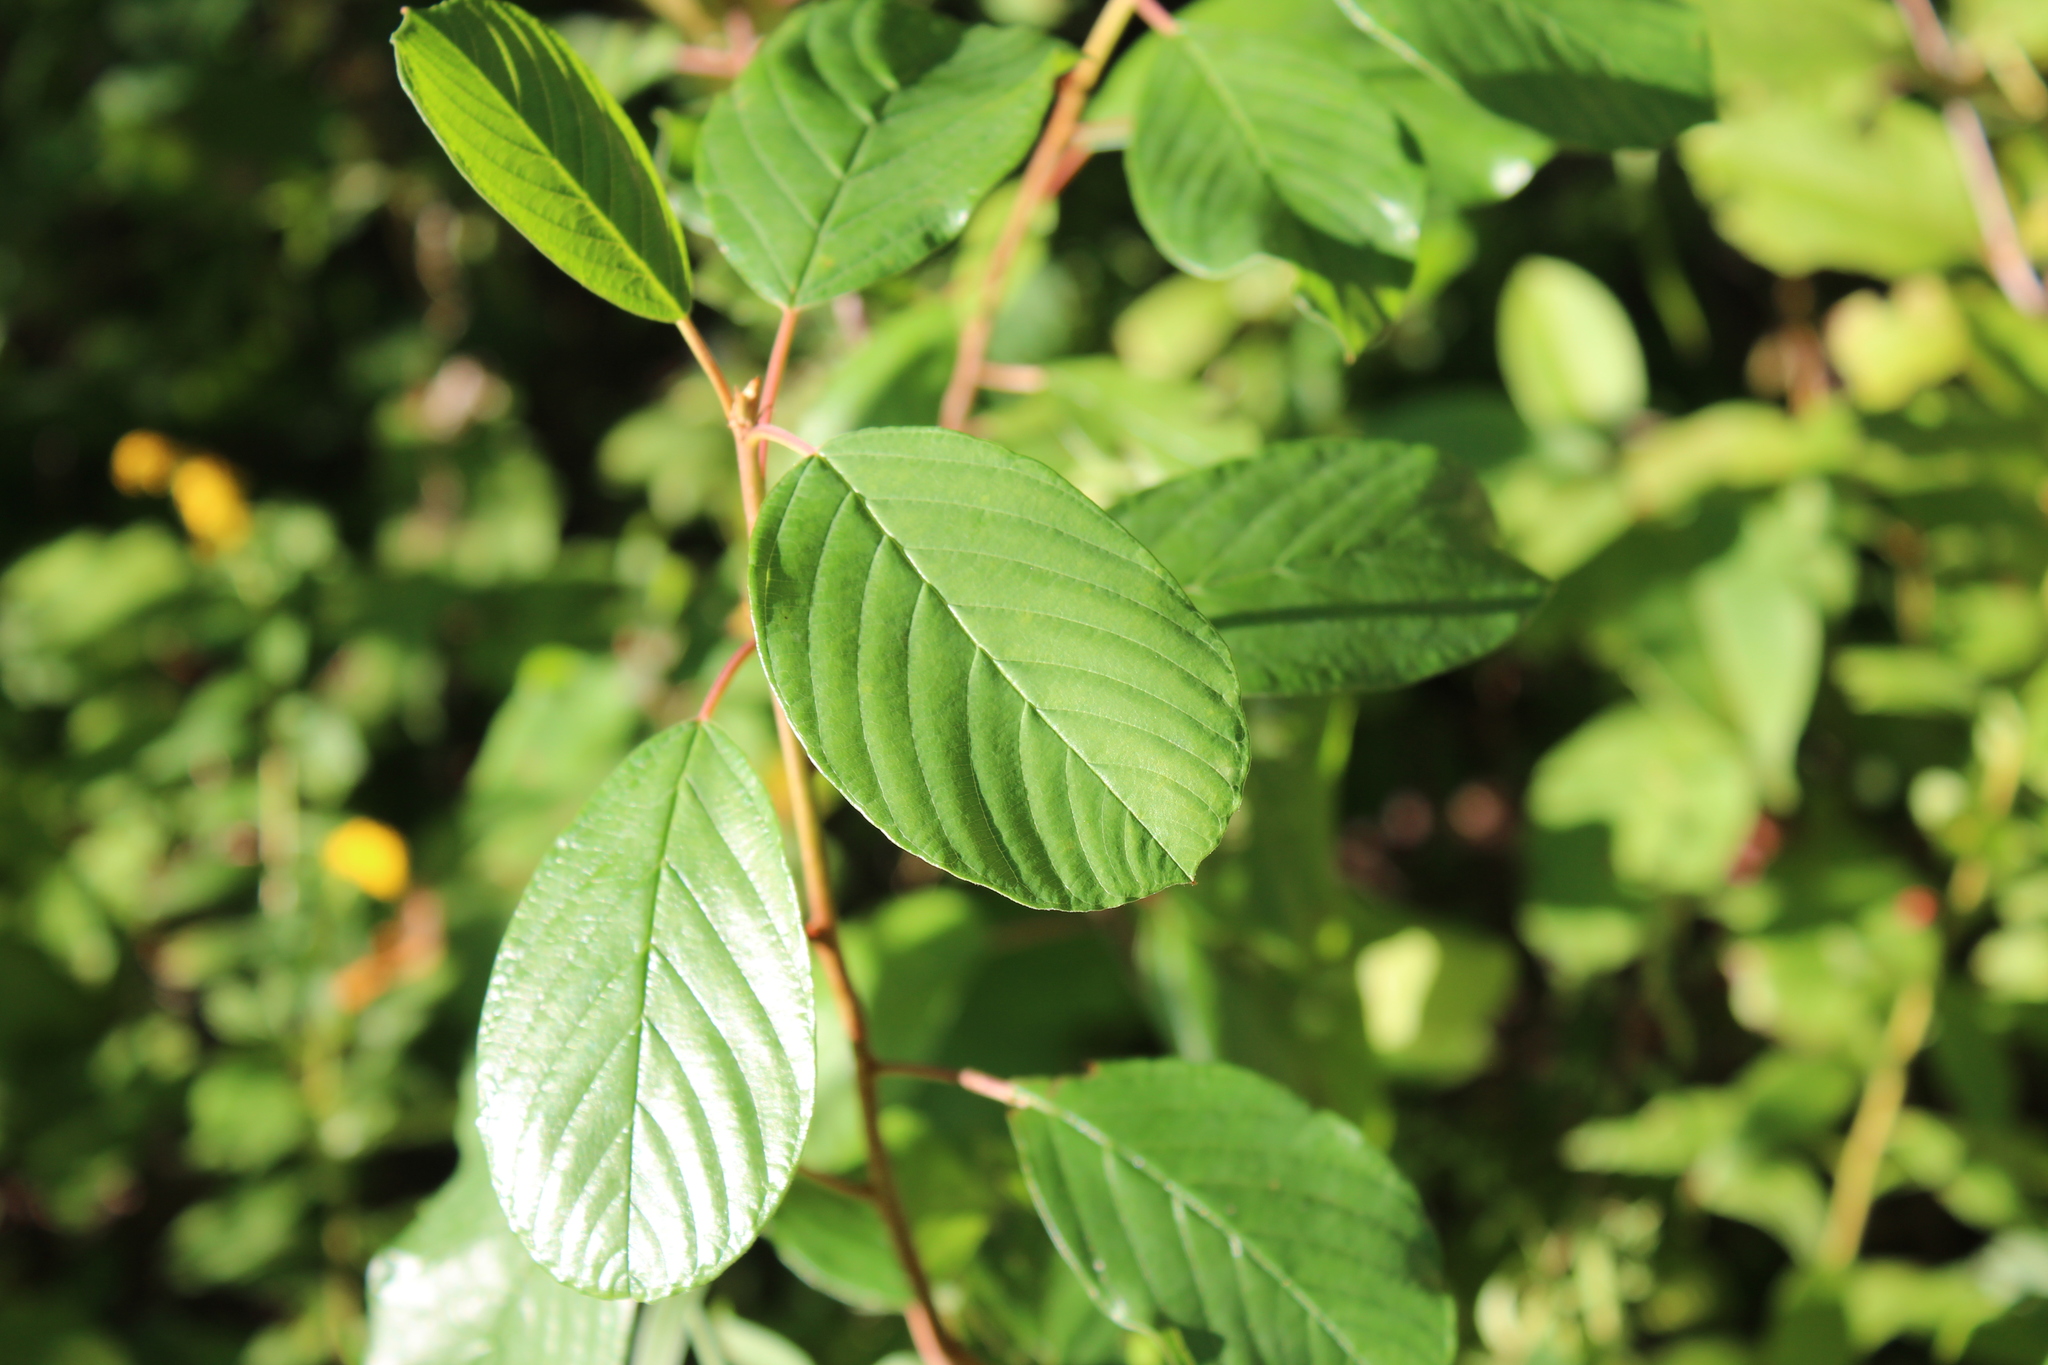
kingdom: Plantae
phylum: Tracheophyta
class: Magnoliopsida
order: Rosales
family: Rhamnaceae
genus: Frangula
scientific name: Frangula alnus
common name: Alder buckthorn
